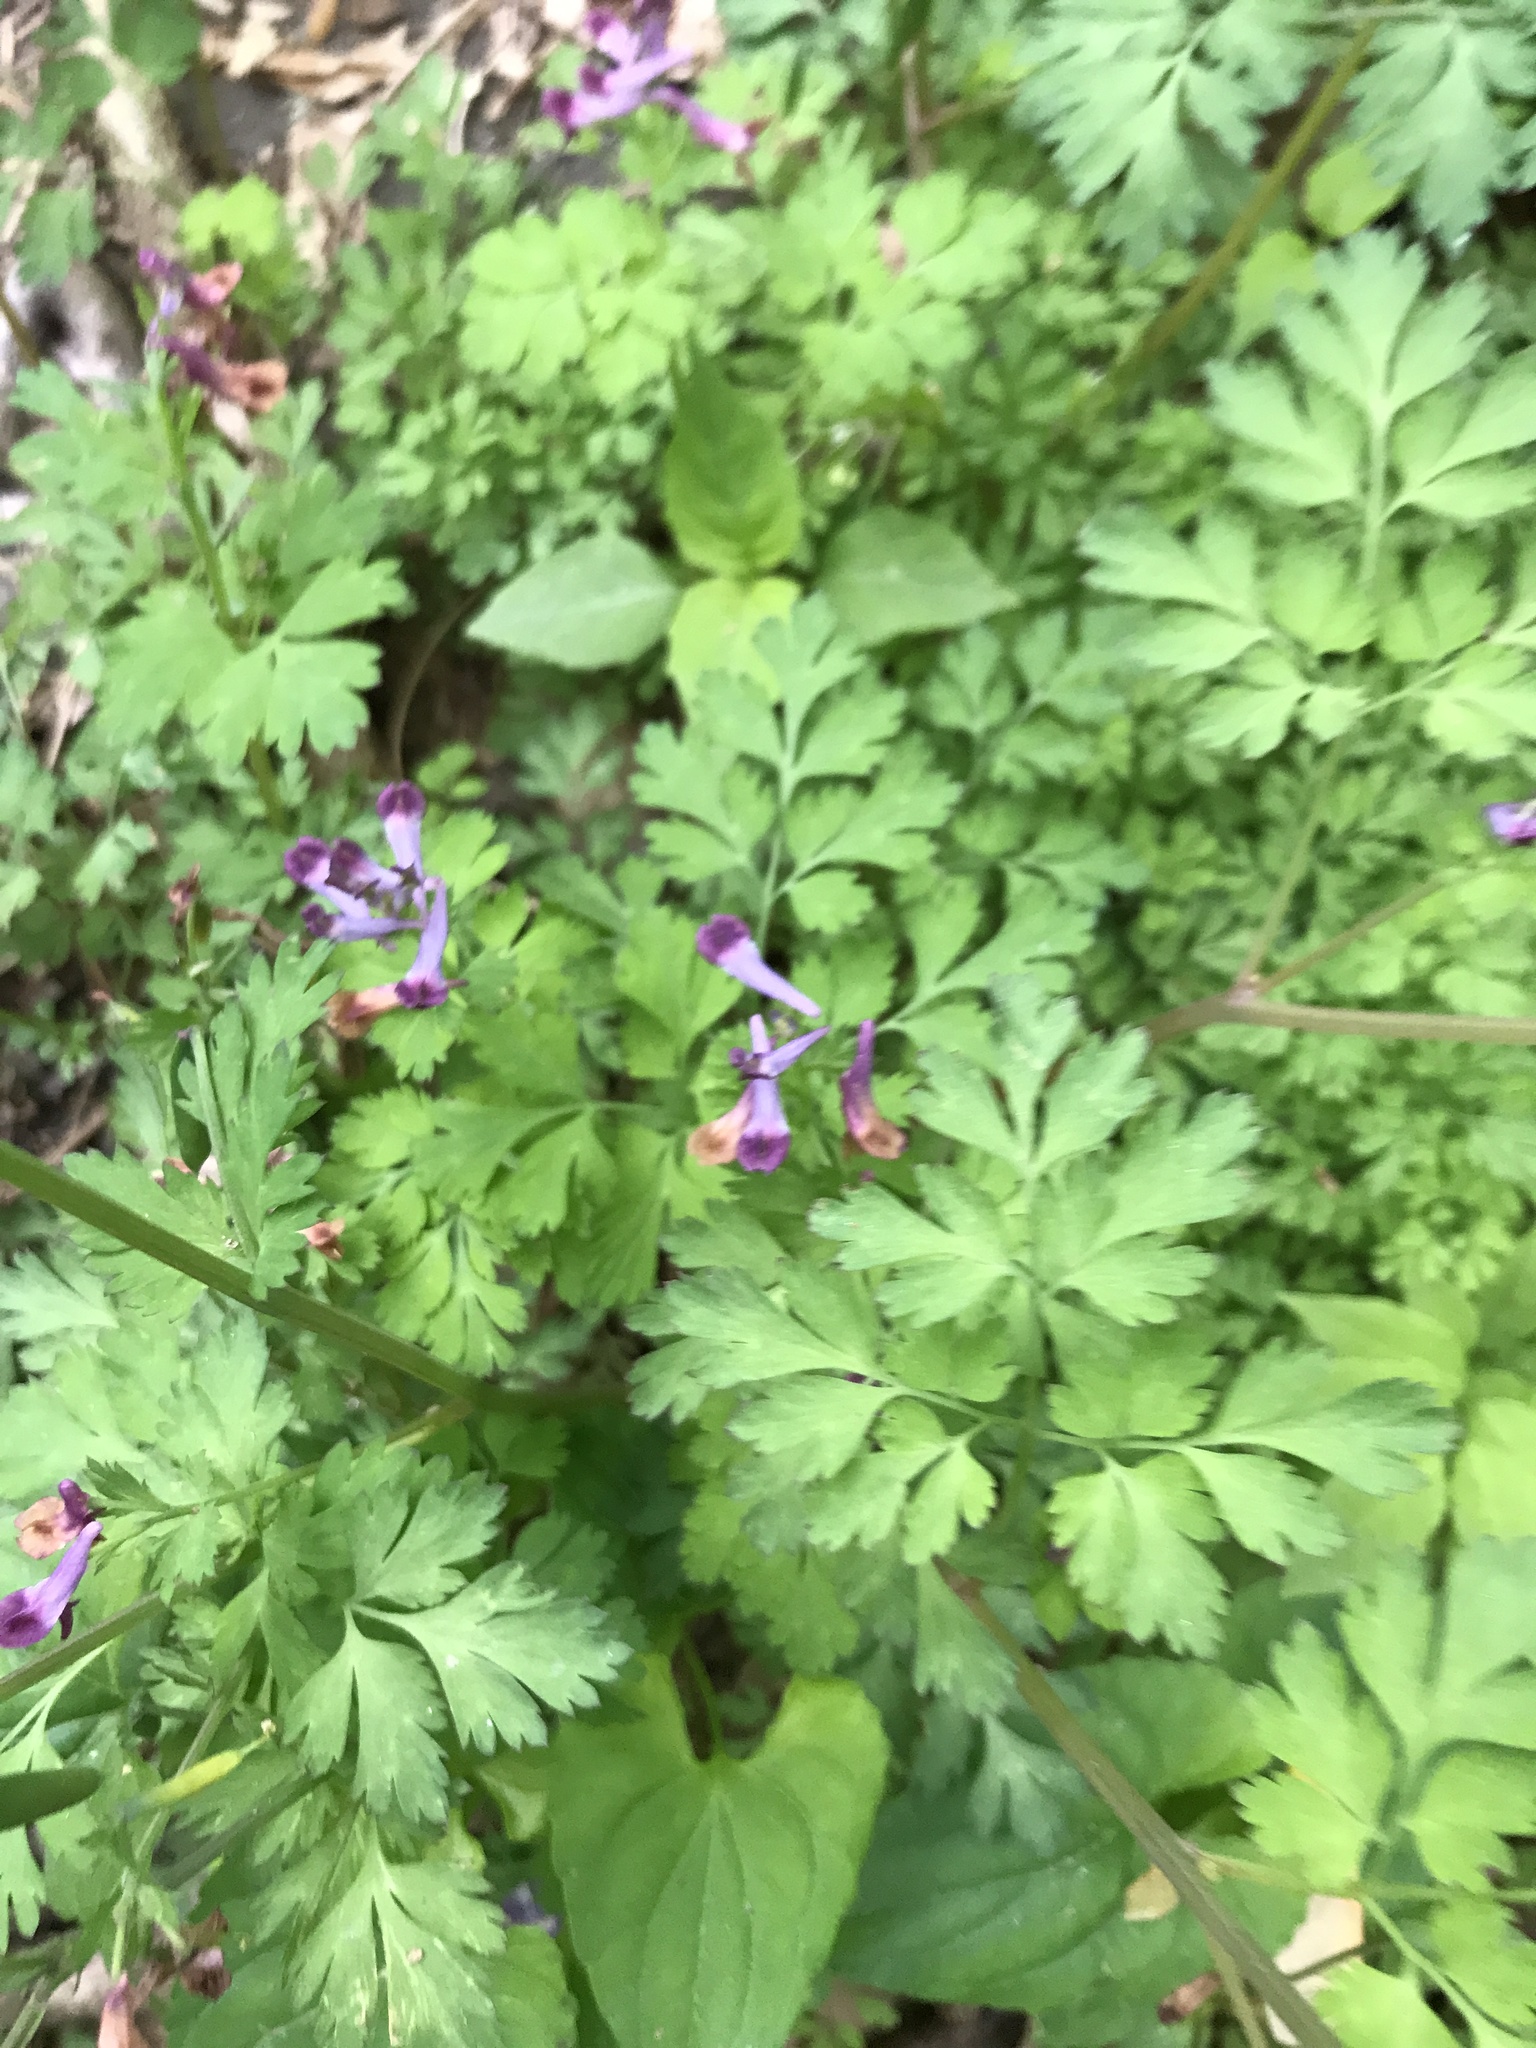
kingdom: Plantae
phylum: Tracheophyta
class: Magnoliopsida
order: Ranunculales
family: Papaveraceae
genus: Corydalis
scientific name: Corydalis incisa
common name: Incised fumewort
